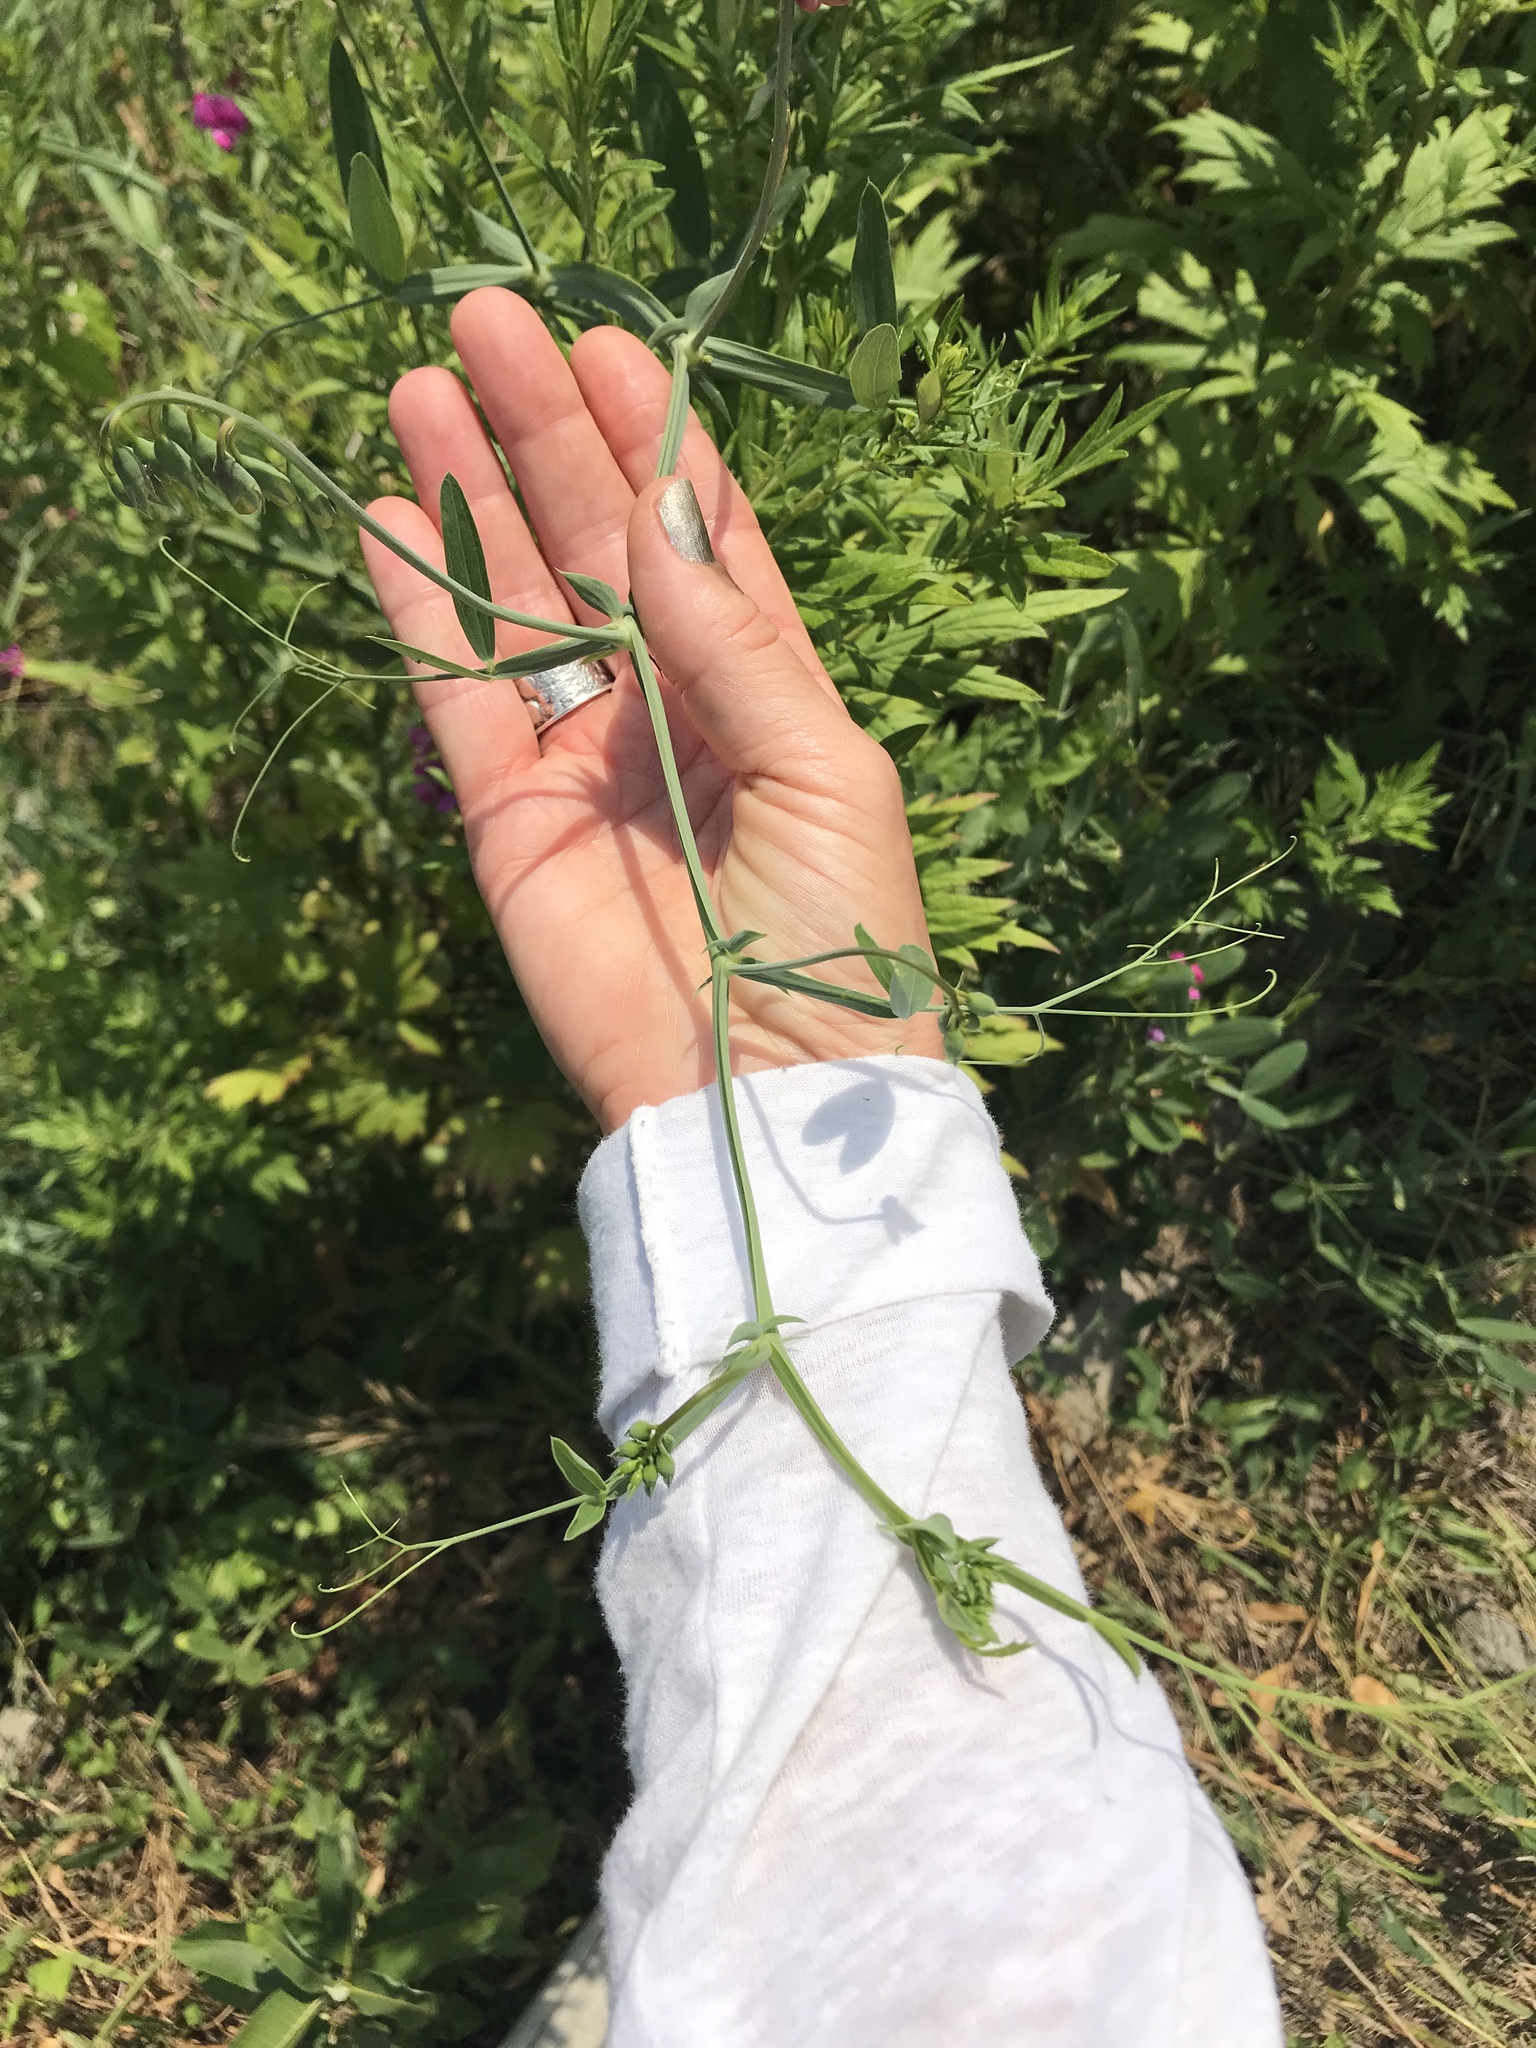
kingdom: Plantae
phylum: Tracheophyta
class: Magnoliopsida
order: Fabales
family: Fabaceae
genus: Lathyrus
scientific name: Lathyrus latifolius
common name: Perennial pea
